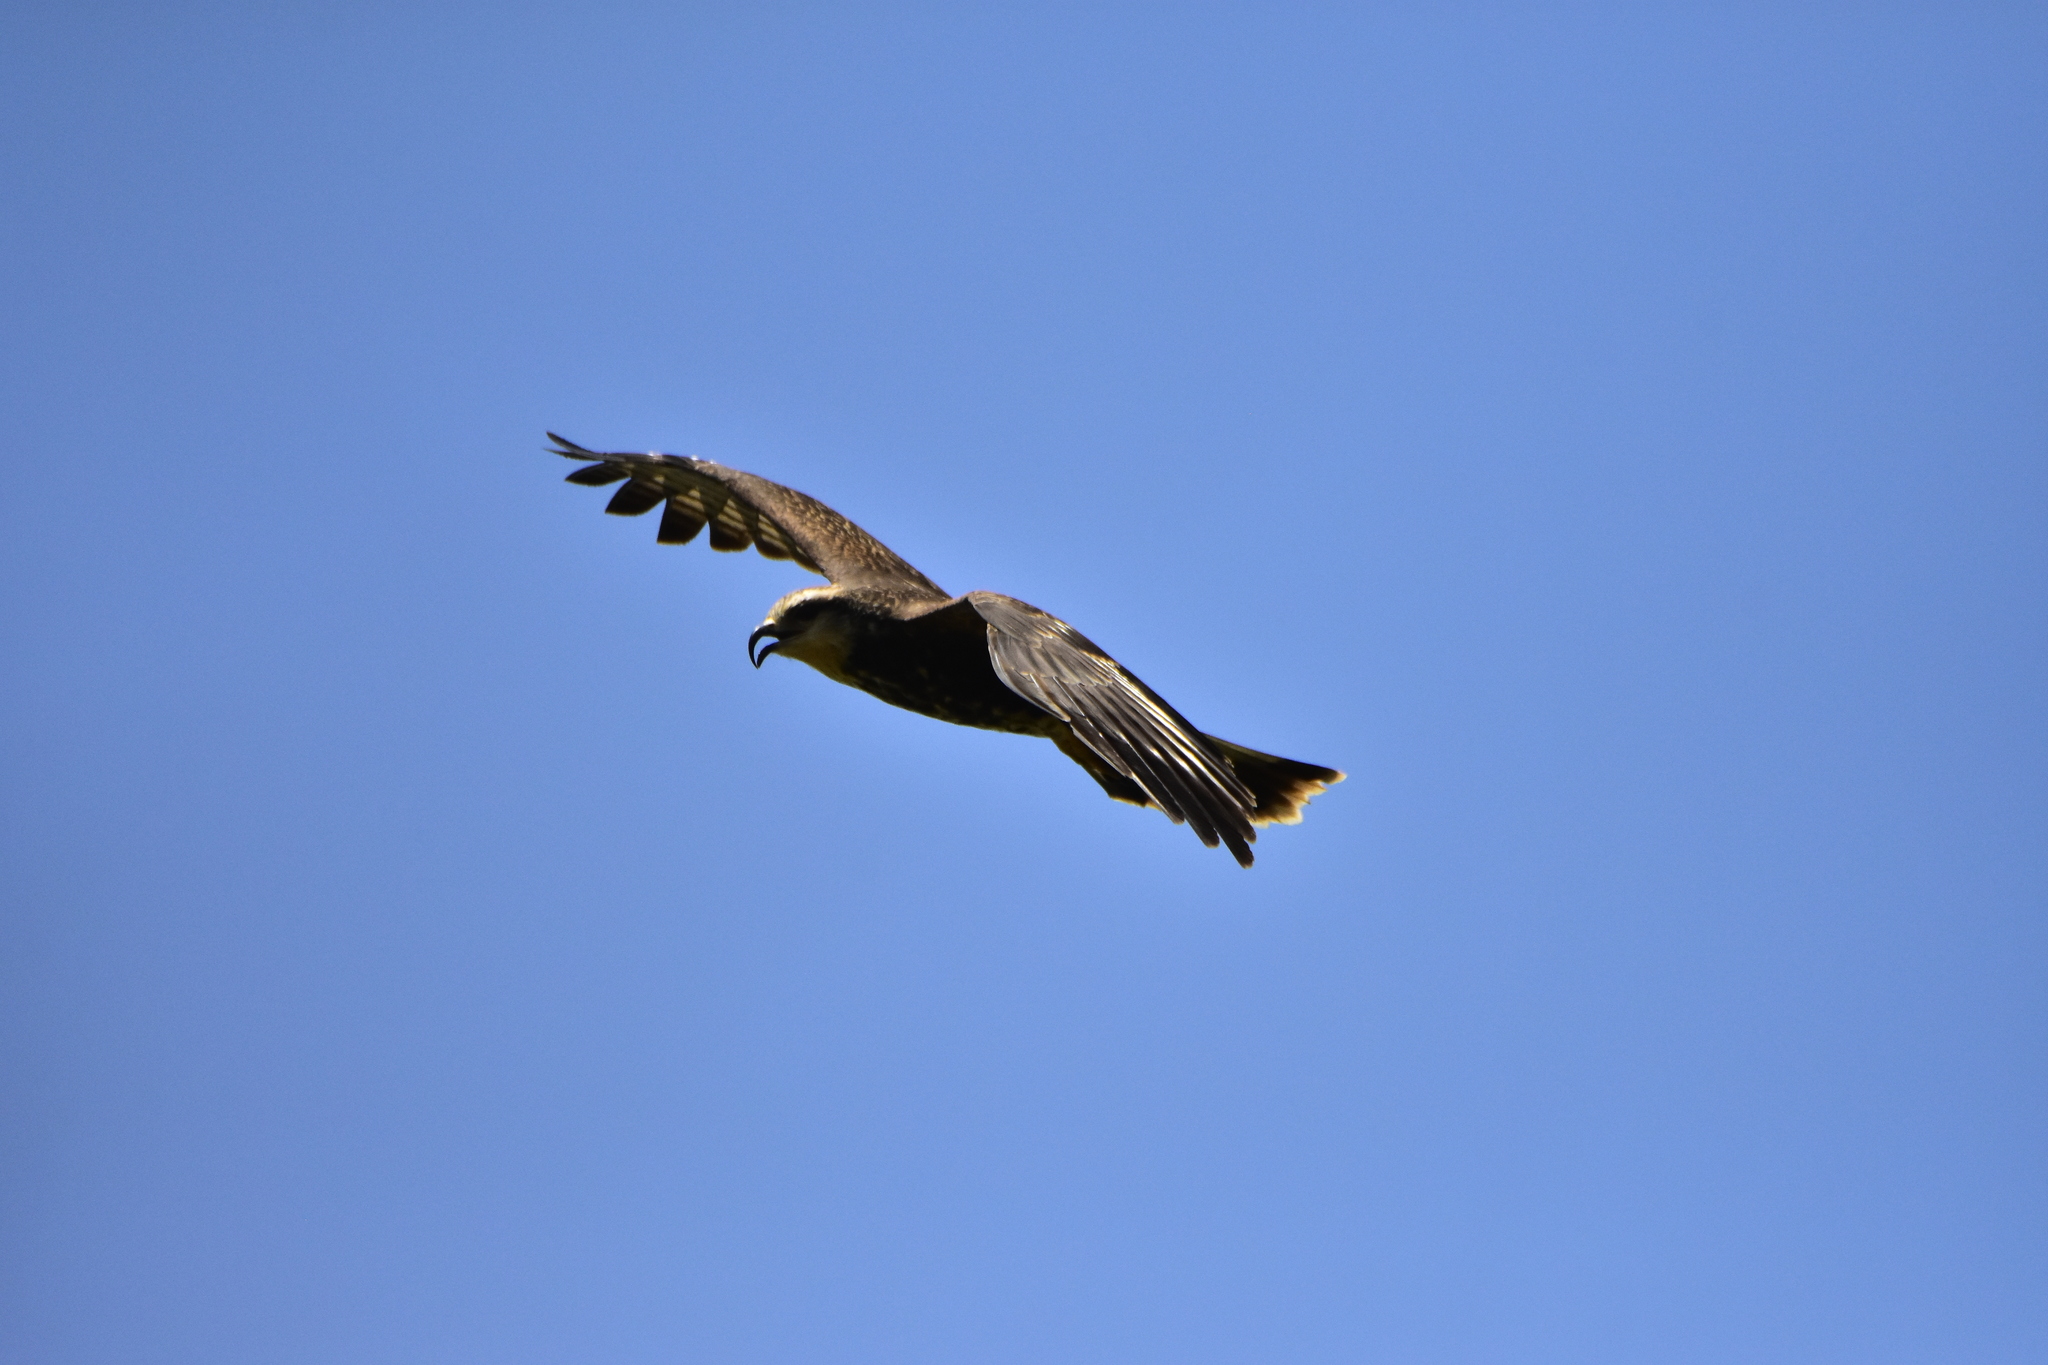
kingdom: Animalia
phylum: Chordata
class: Aves
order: Accipitriformes
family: Accipitridae
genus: Rostrhamus
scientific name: Rostrhamus sociabilis
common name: Snail kite
